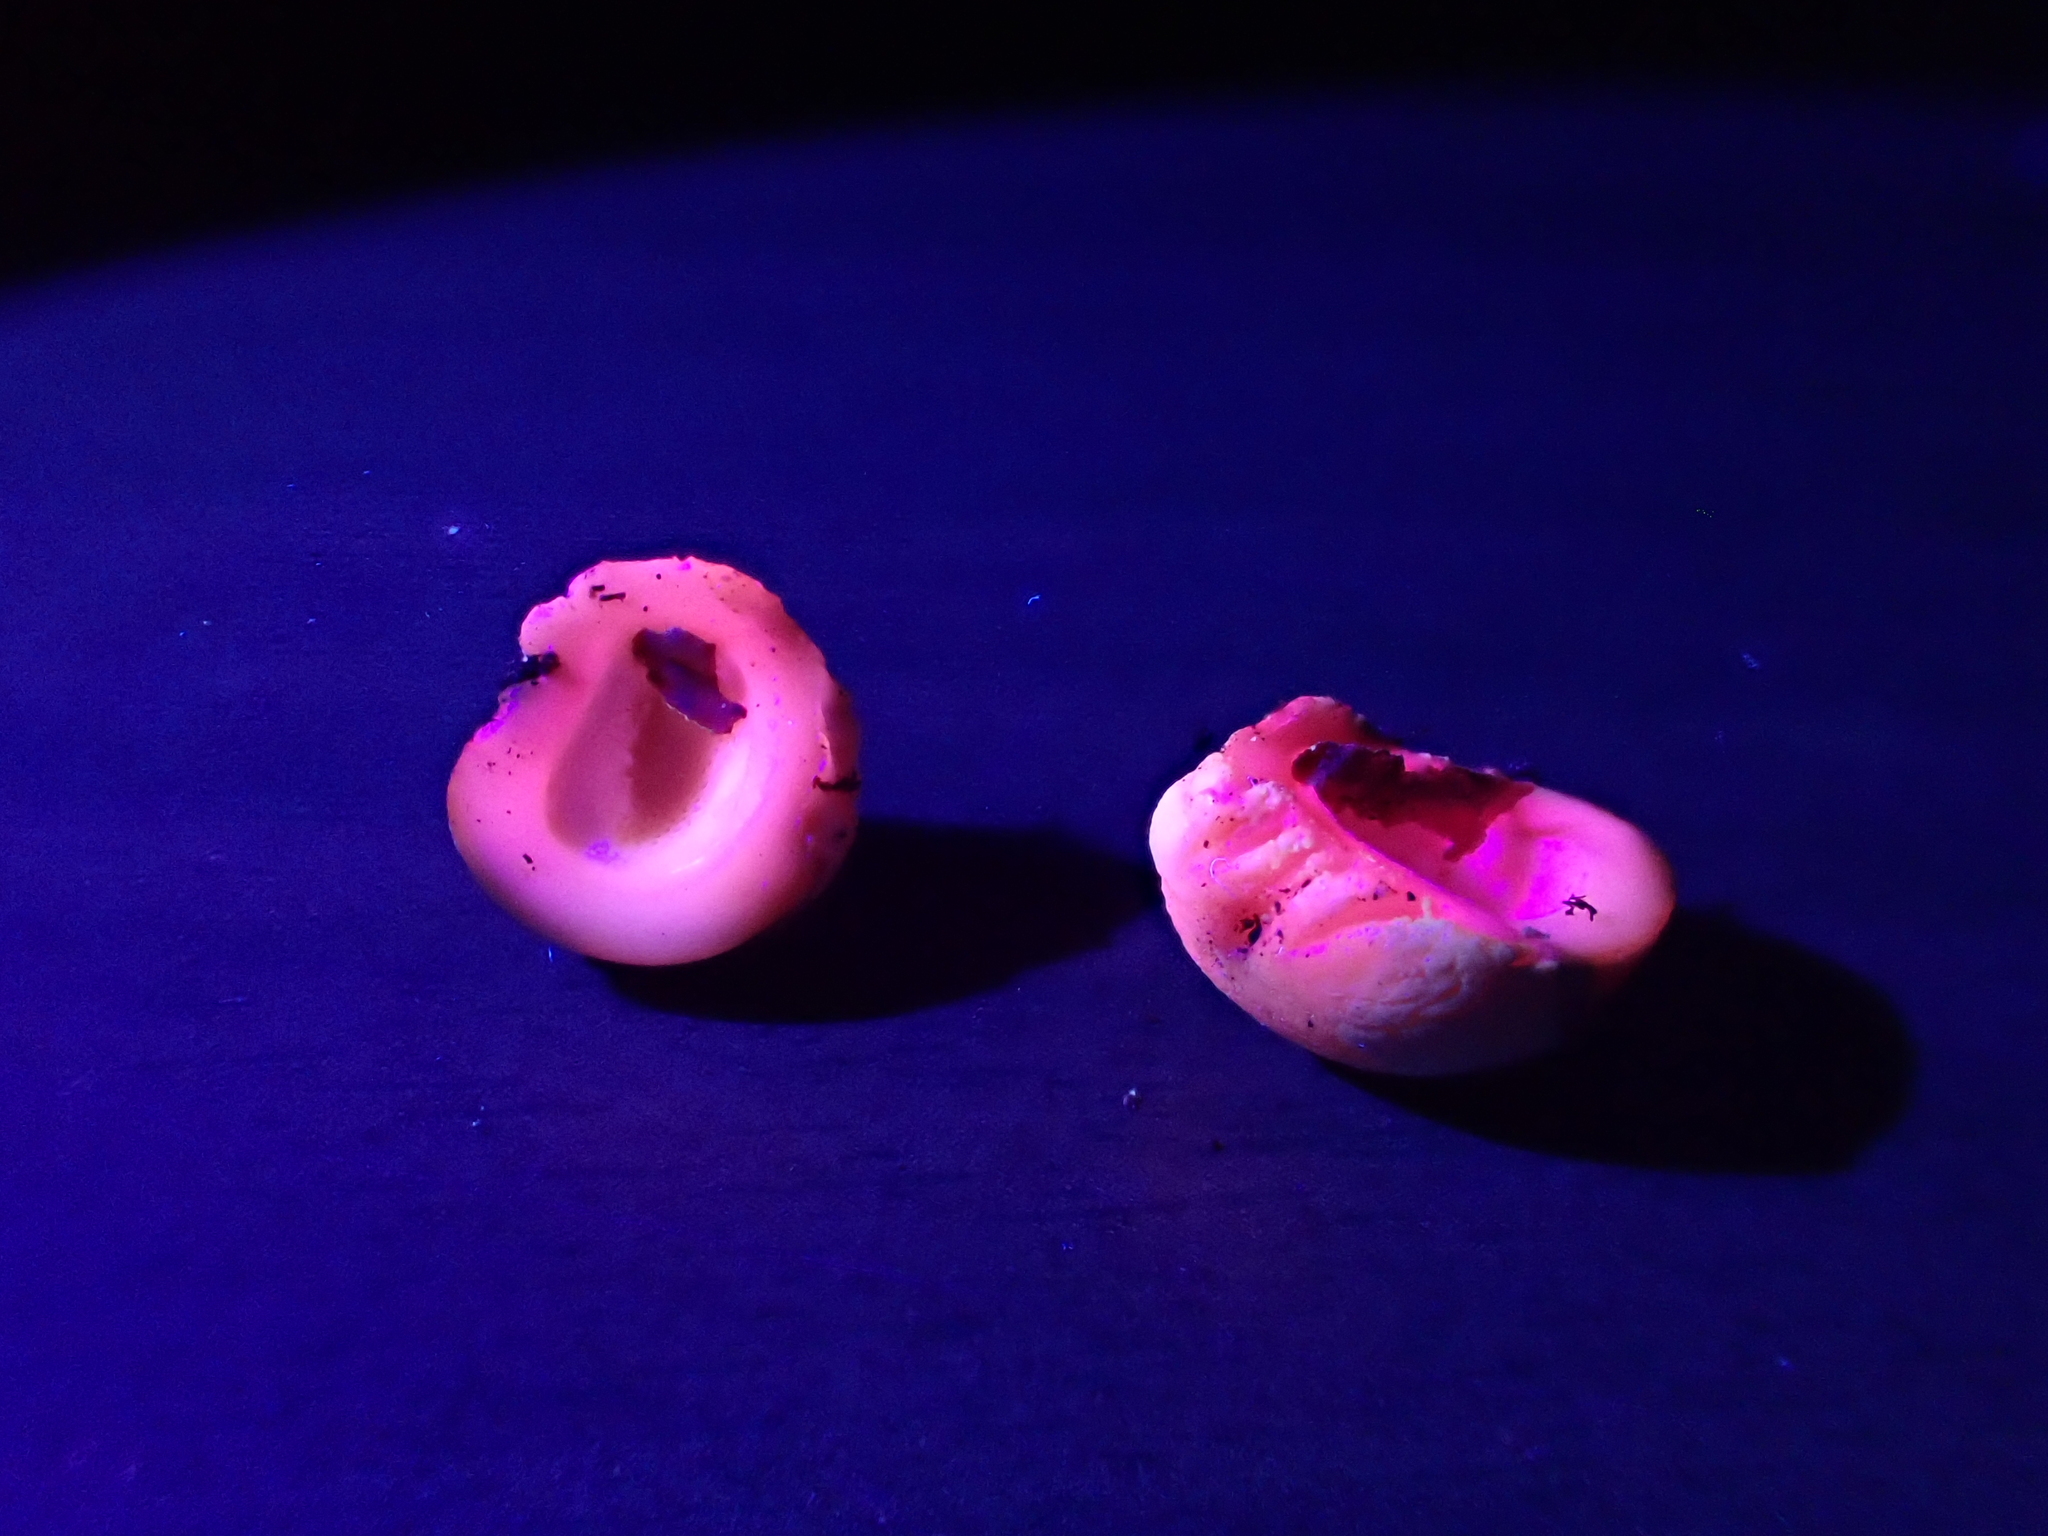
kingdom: Fungi
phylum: Basidiomycota
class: Agaricomycetes
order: Polyporales
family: Polyporaceae
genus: Cryptoporus
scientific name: Cryptoporus volvatus
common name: Veiled polypore
